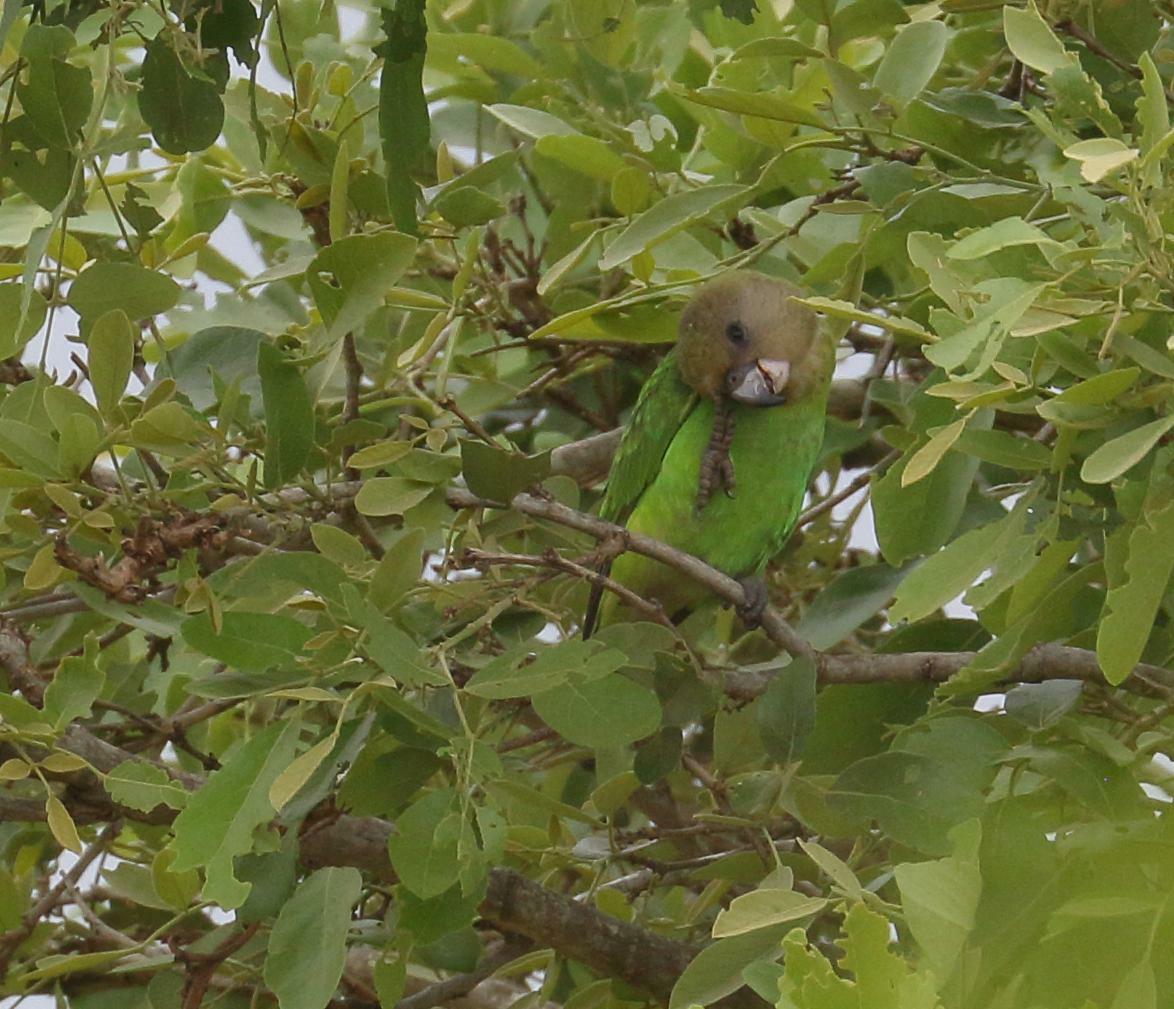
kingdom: Animalia
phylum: Chordata
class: Aves
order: Psittaciformes
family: Psittacidae
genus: Poicephalus
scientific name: Poicephalus cryptoxanthus
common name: Brown-headed parrot
